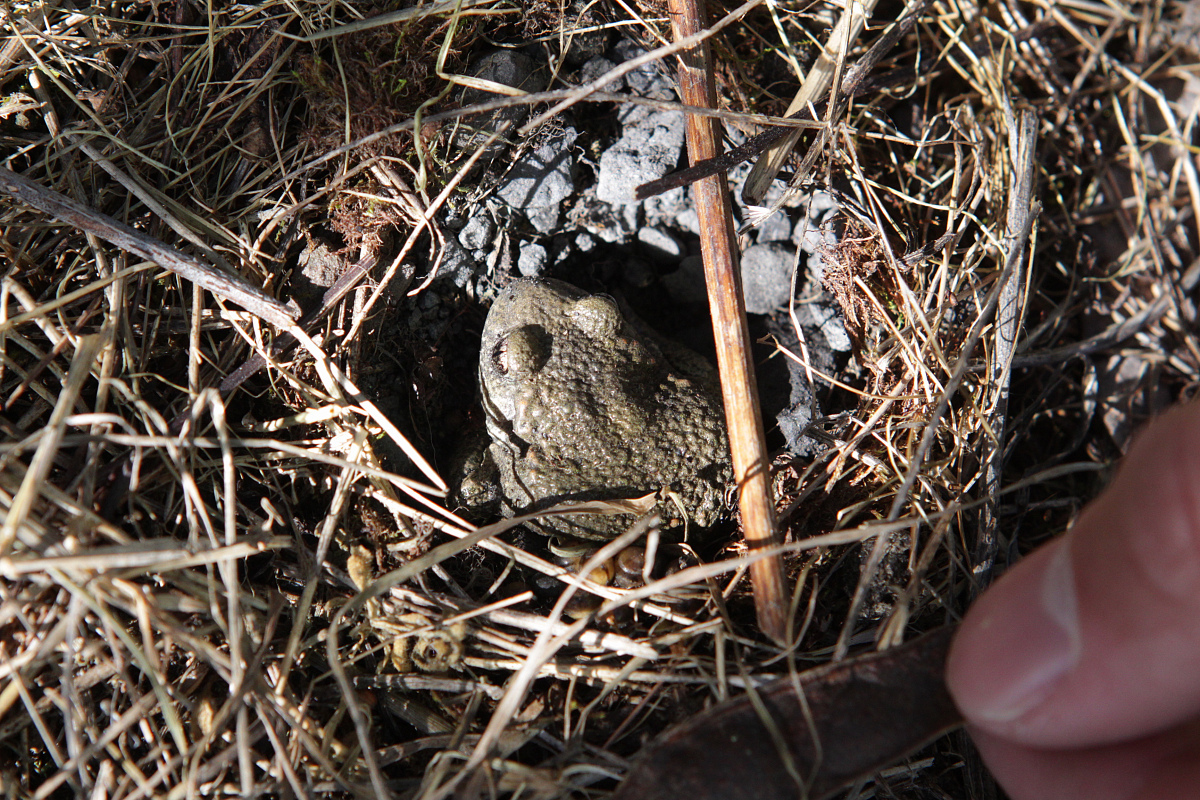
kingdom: Animalia
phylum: Chordata
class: Amphibia
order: Anura
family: Alytidae
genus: Alytes
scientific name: Alytes obstetricans
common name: Midwife toad
